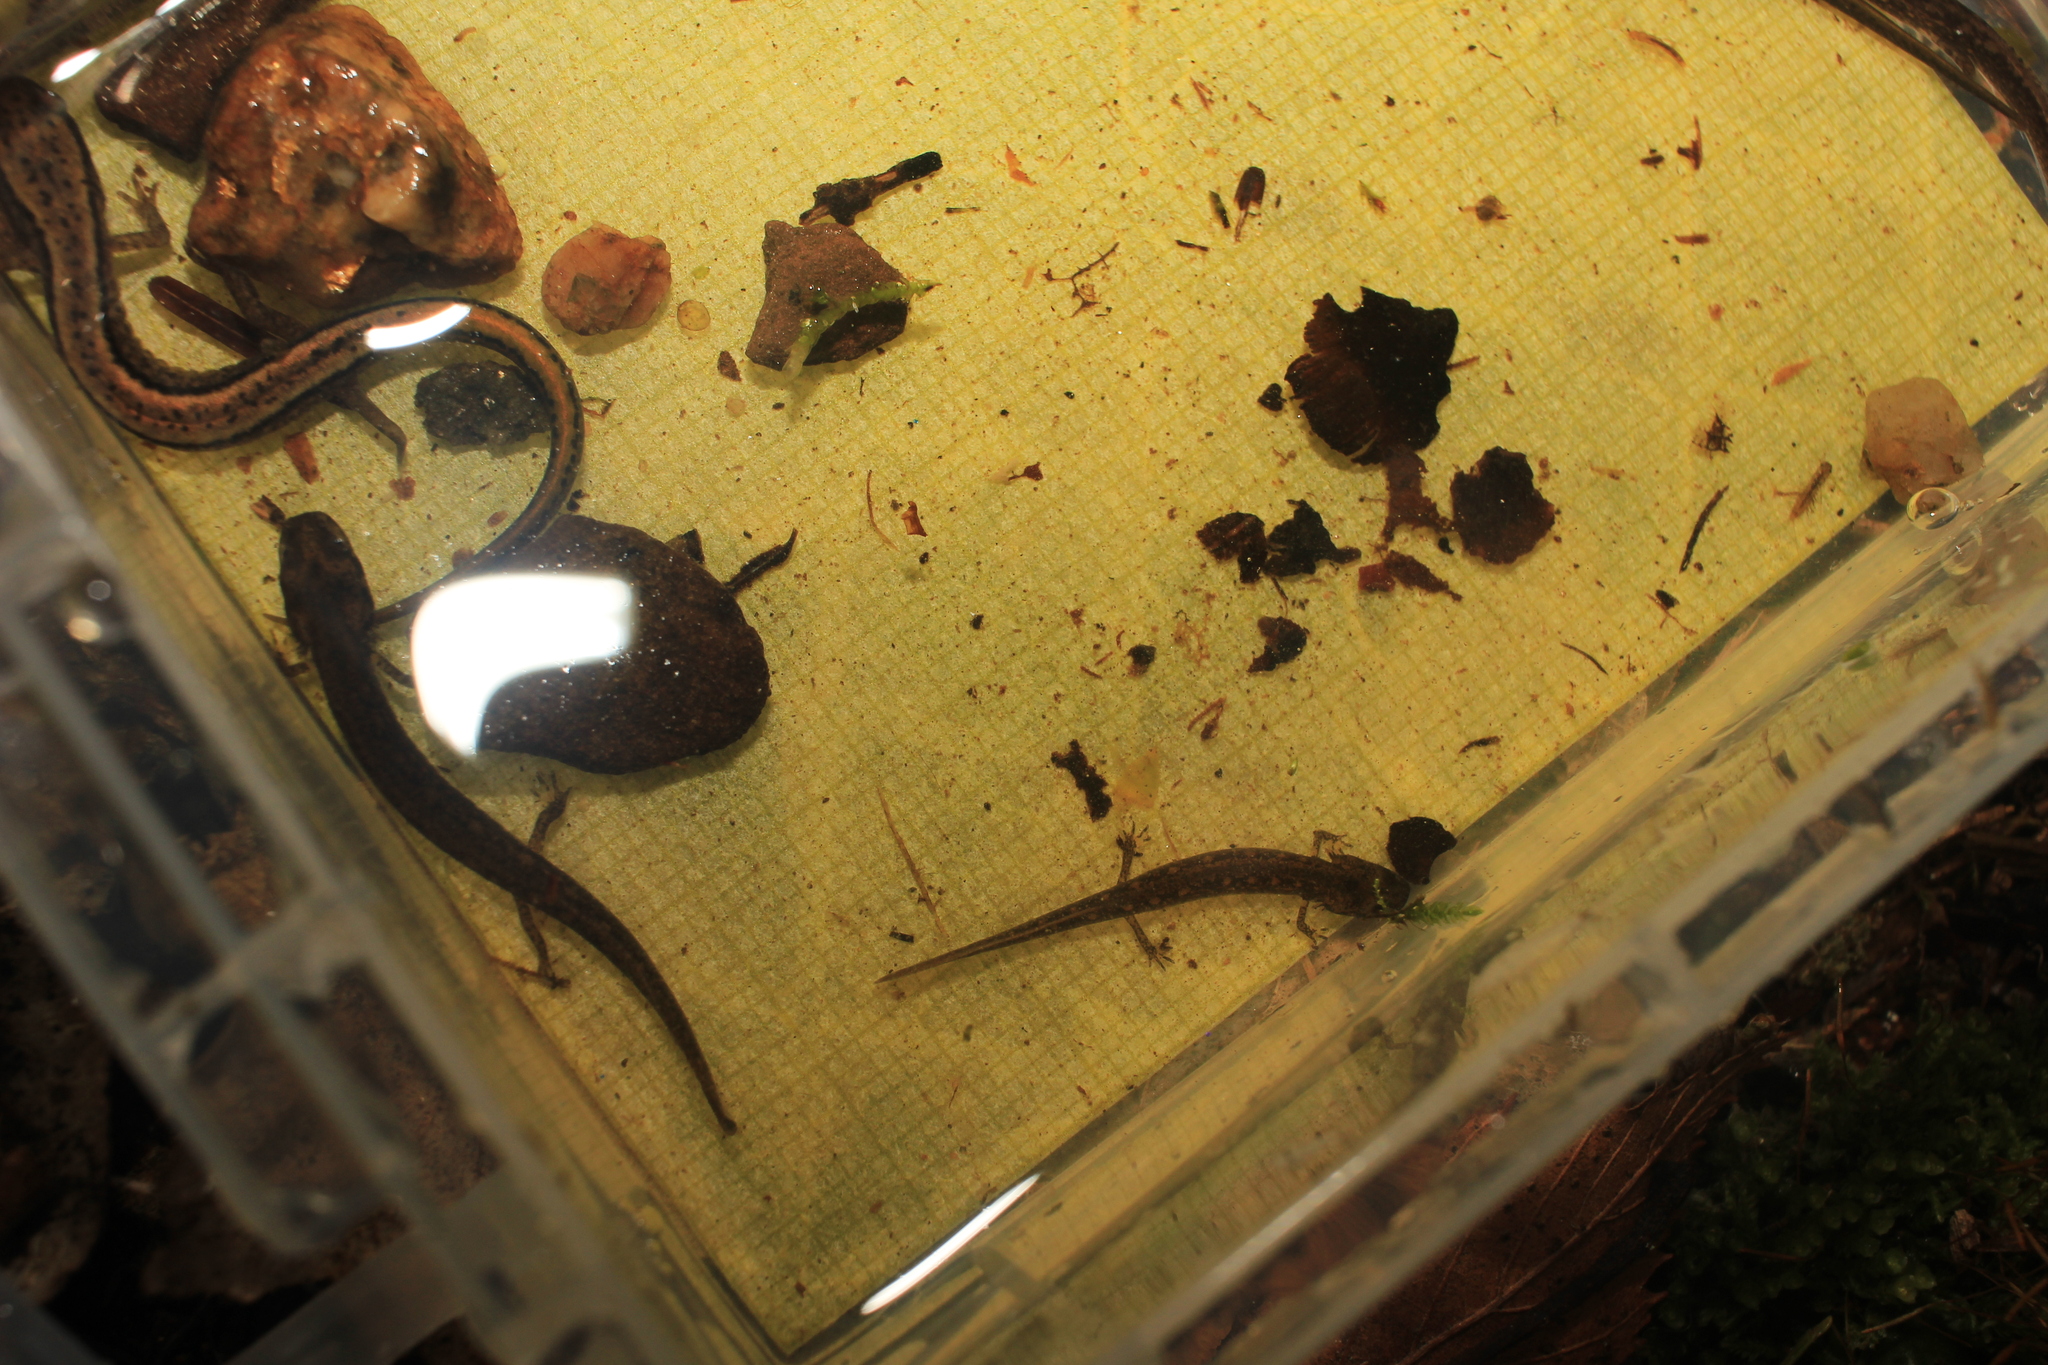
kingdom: Animalia
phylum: Chordata
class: Amphibia
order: Caudata
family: Plethodontidae
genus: Eurycea
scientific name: Eurycea bislineata
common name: Northern two-lined salamander
